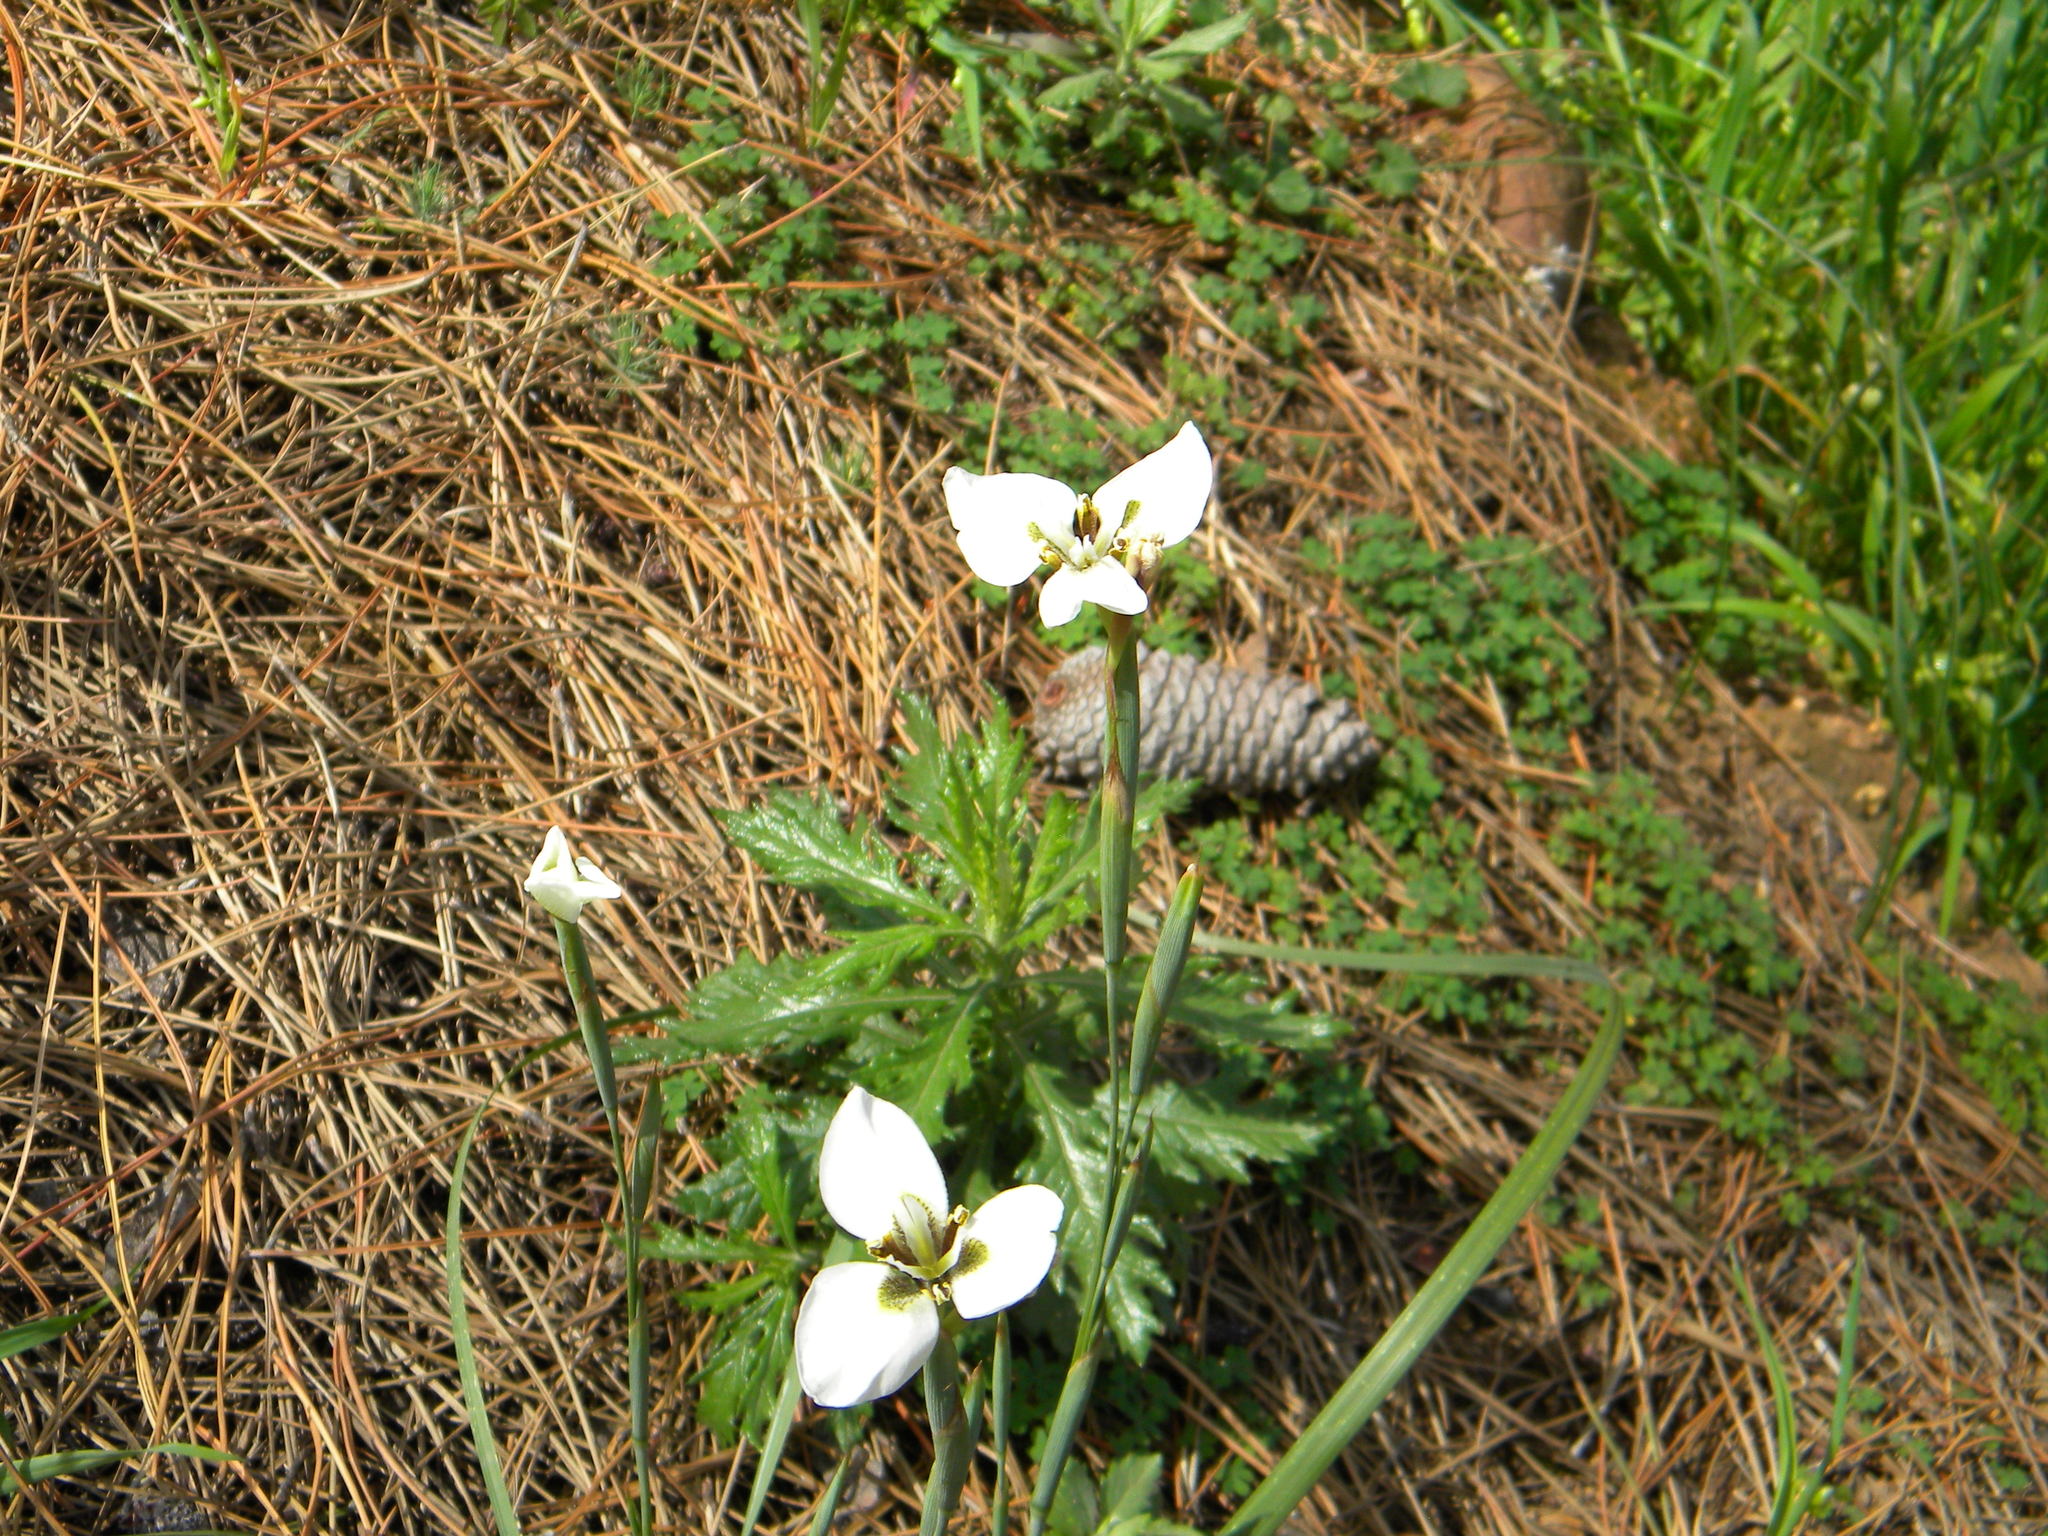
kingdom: Plantae
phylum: Tracheophyta
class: Liliopsida
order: Asparagales
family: Iridaceae
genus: Moraea
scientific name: Moraea tricuspidata
